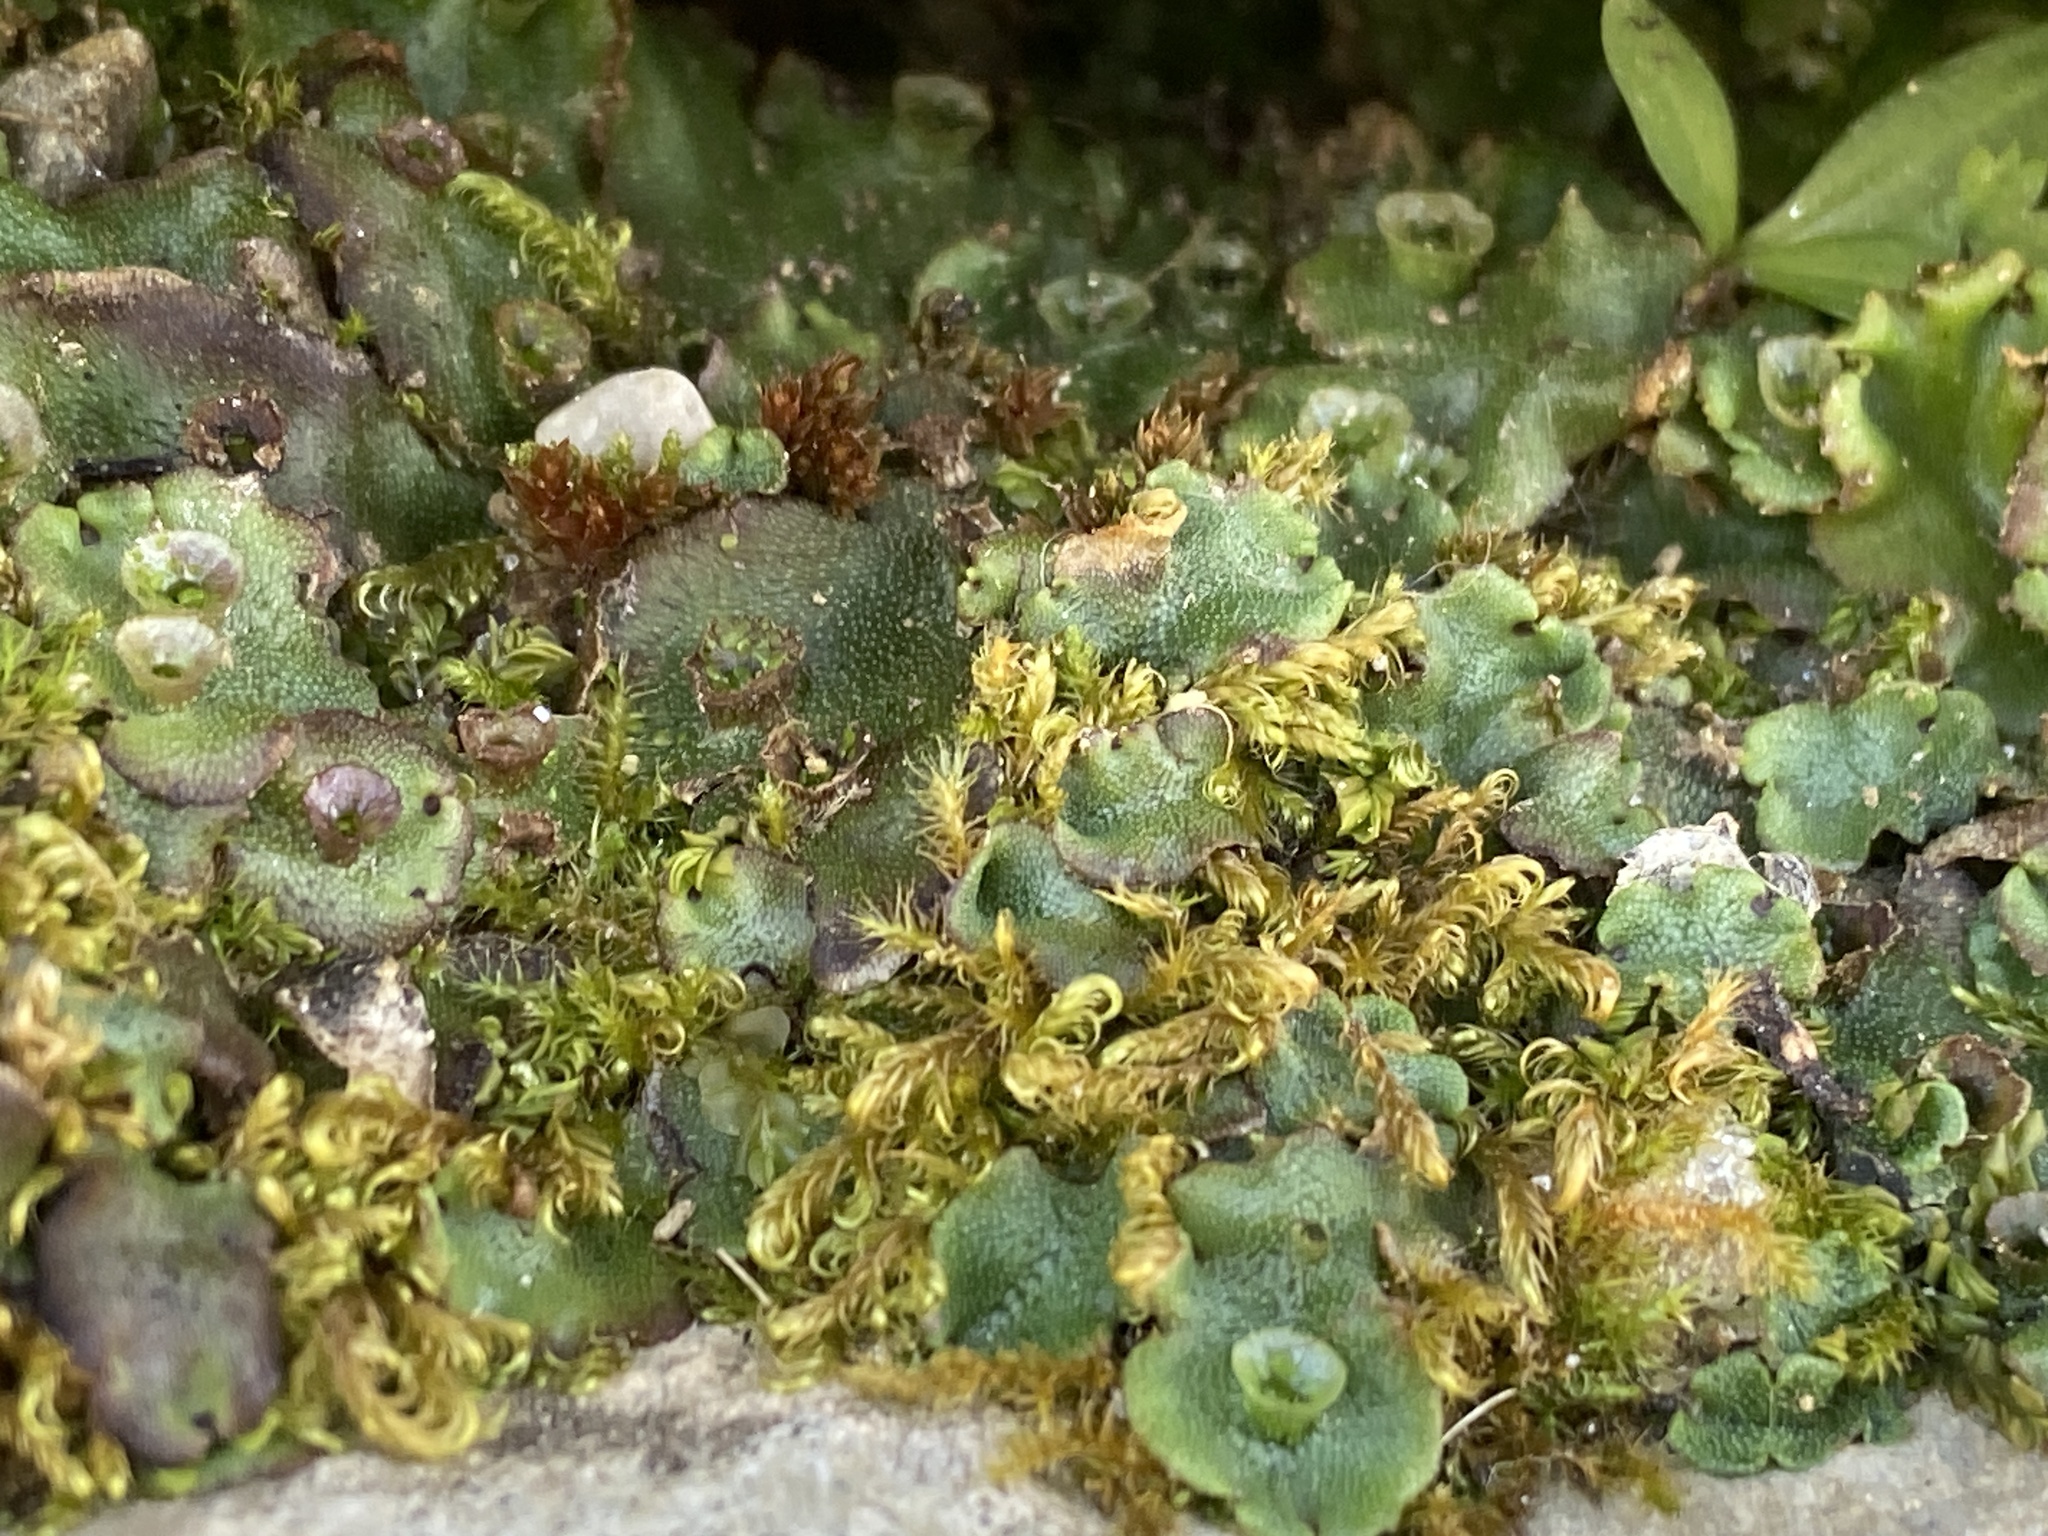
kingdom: Plantae
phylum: Marchantiophyta
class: Marchantiopsida
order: Marchantiales
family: Marchantiaceae
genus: Marchantia
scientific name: Marchantia polymorpha
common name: Common liverwort
